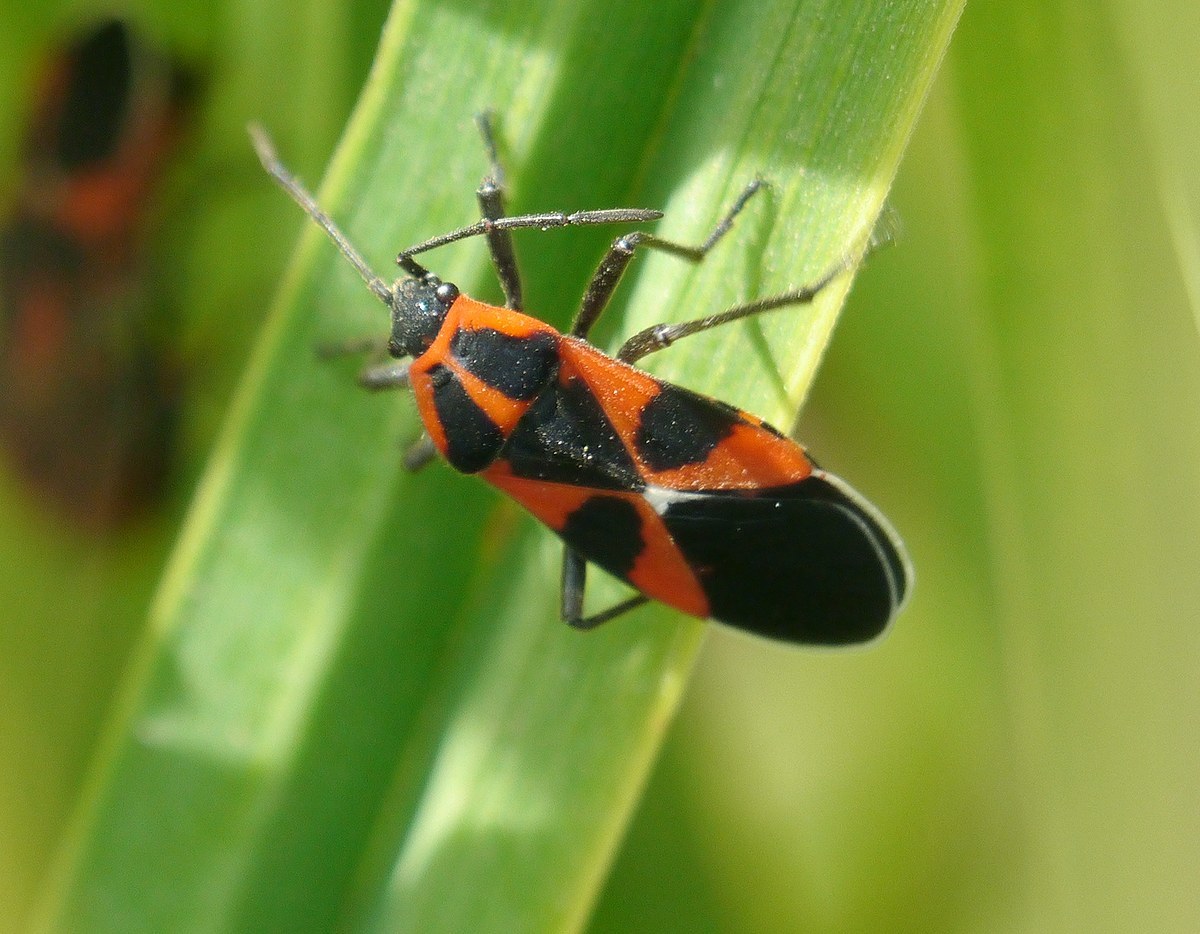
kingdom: Animalia
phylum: Arthropoda
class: Insecta
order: Hemiptera
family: Lygaeidae
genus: Tropidothorax
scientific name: Tropidothorax leucopterus
